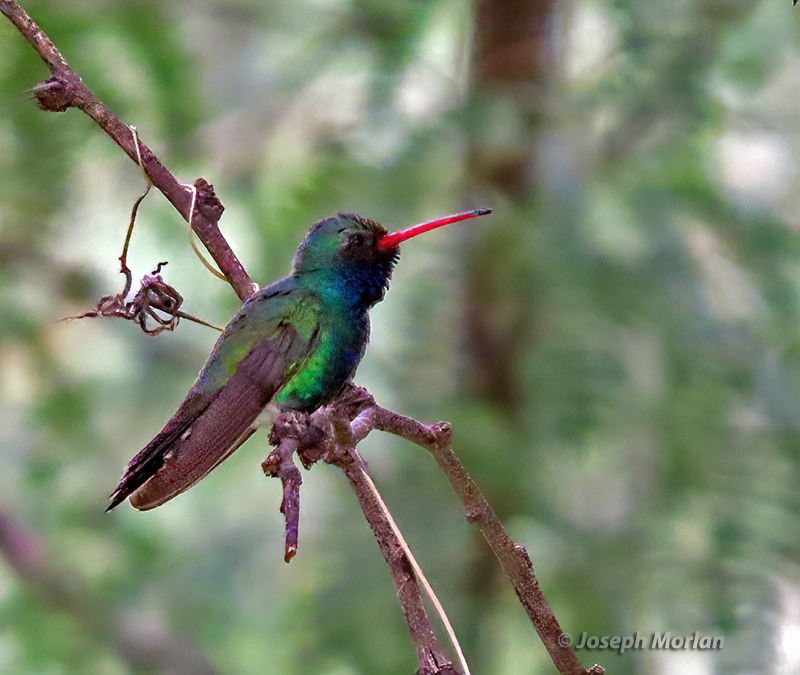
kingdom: Animalia
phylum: Chordata
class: Aves
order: Apodiformes
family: Trochilidae
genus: Cynanthus
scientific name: Cynanthus latirostris
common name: Broad-billed hummingbird
